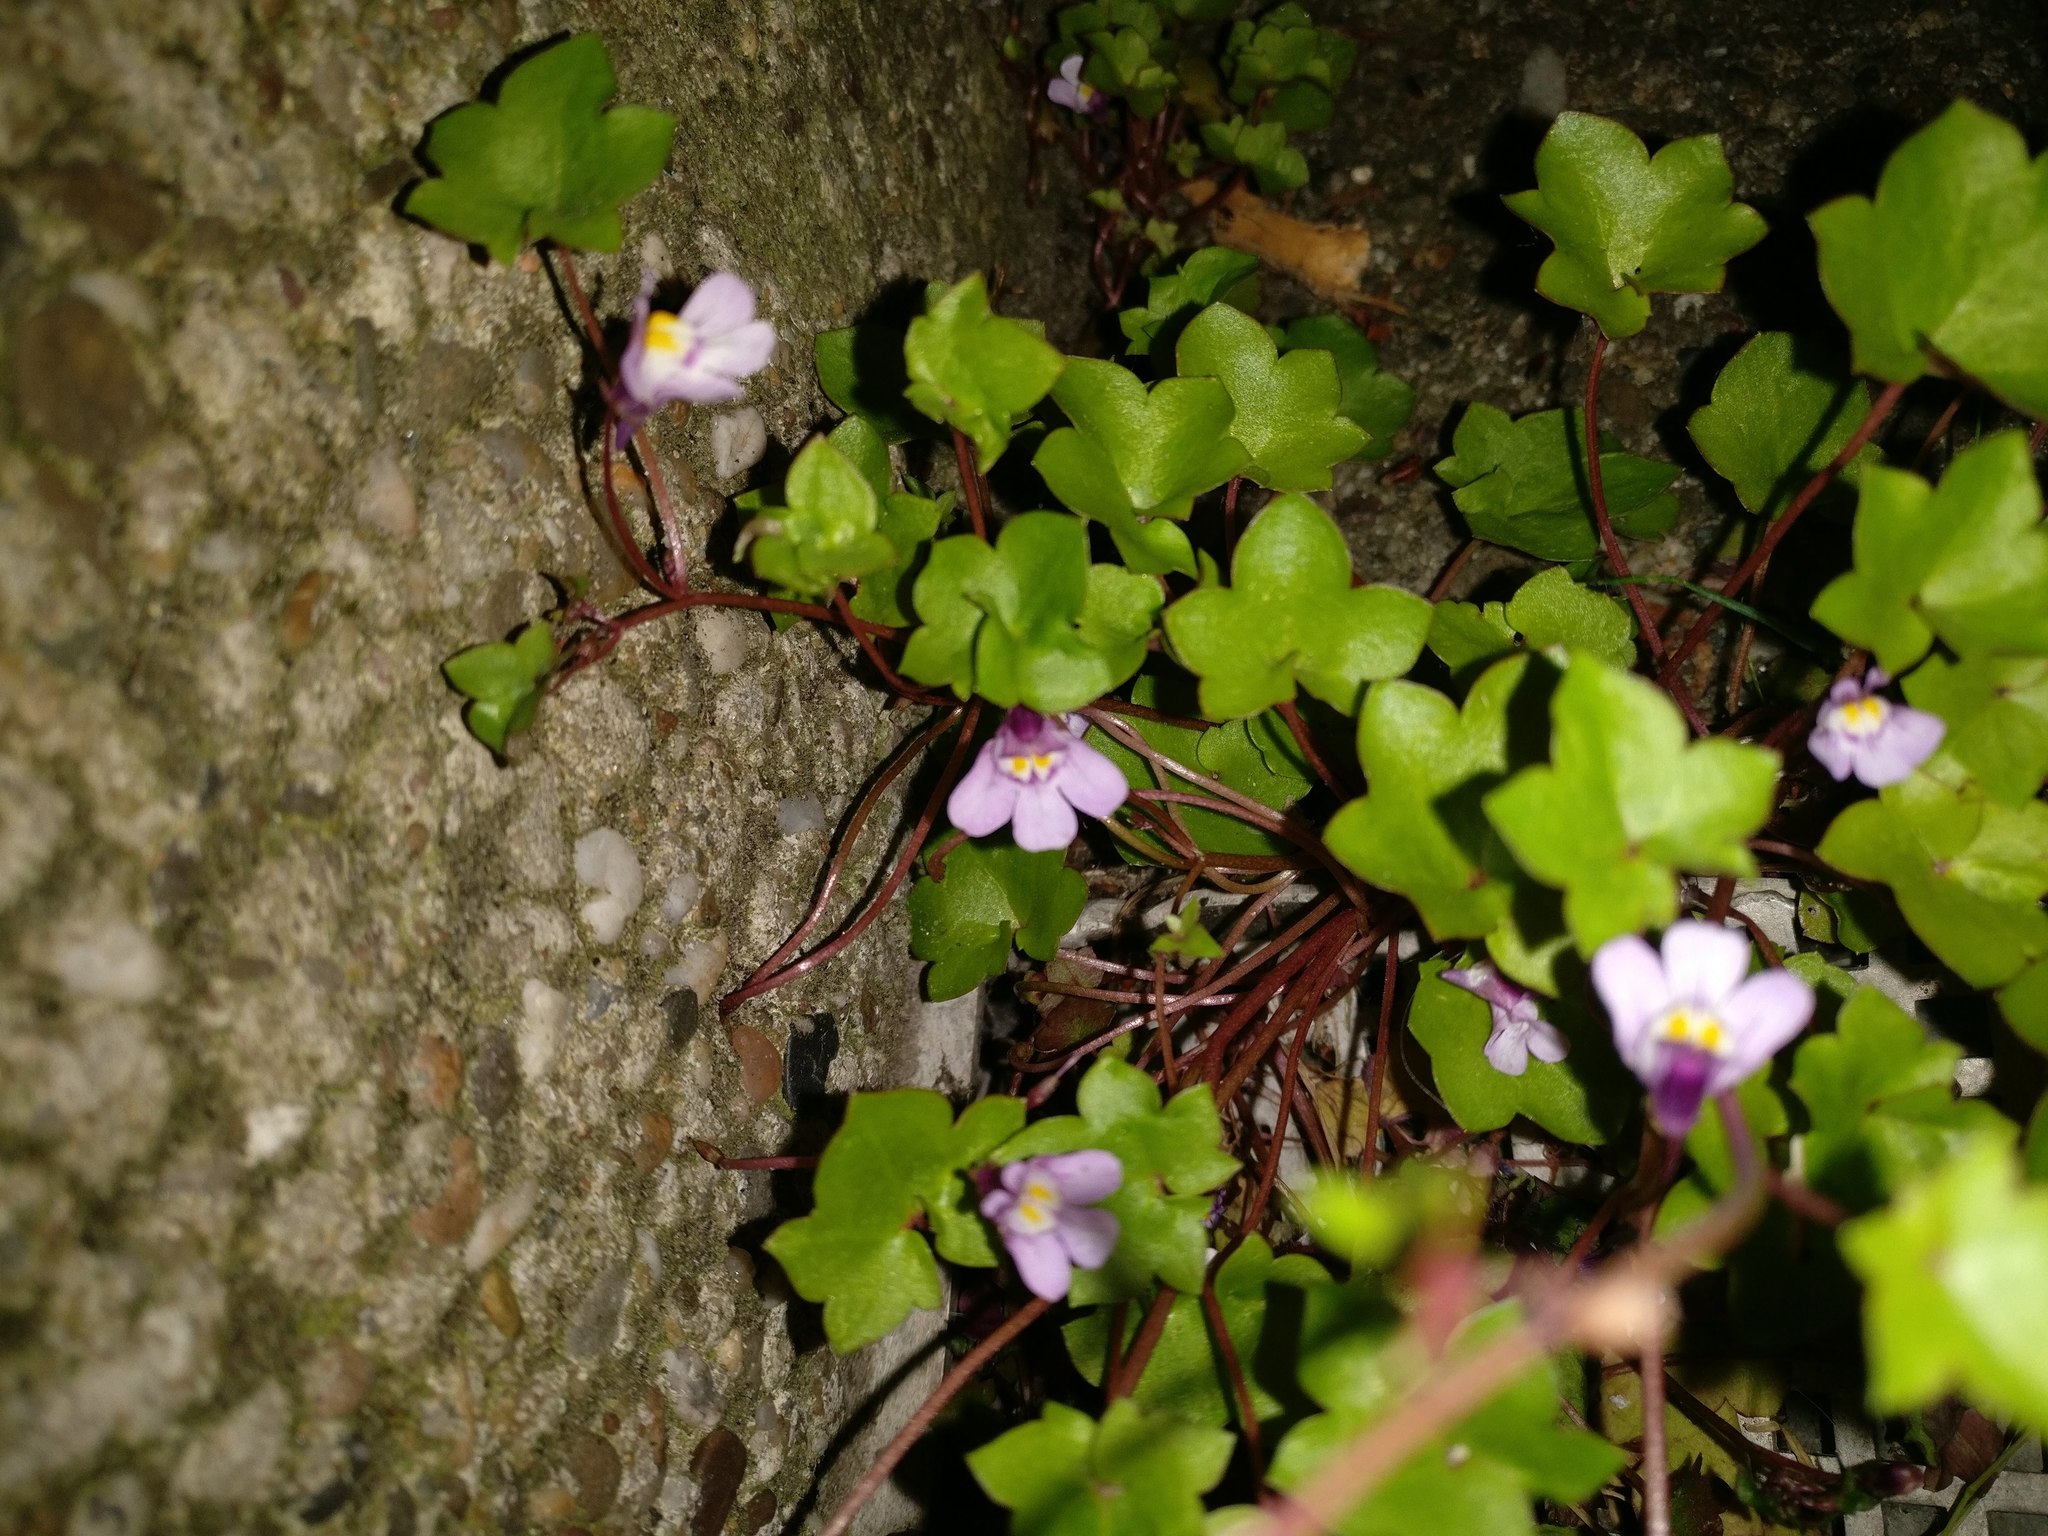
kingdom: Plantae
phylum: Tracheophyta
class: Magnoliopsida
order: Lamiales
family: Plantaginaceae
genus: Cymbalaria
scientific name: Cymbalaria muralis
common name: Ivy-leaved toadflax
